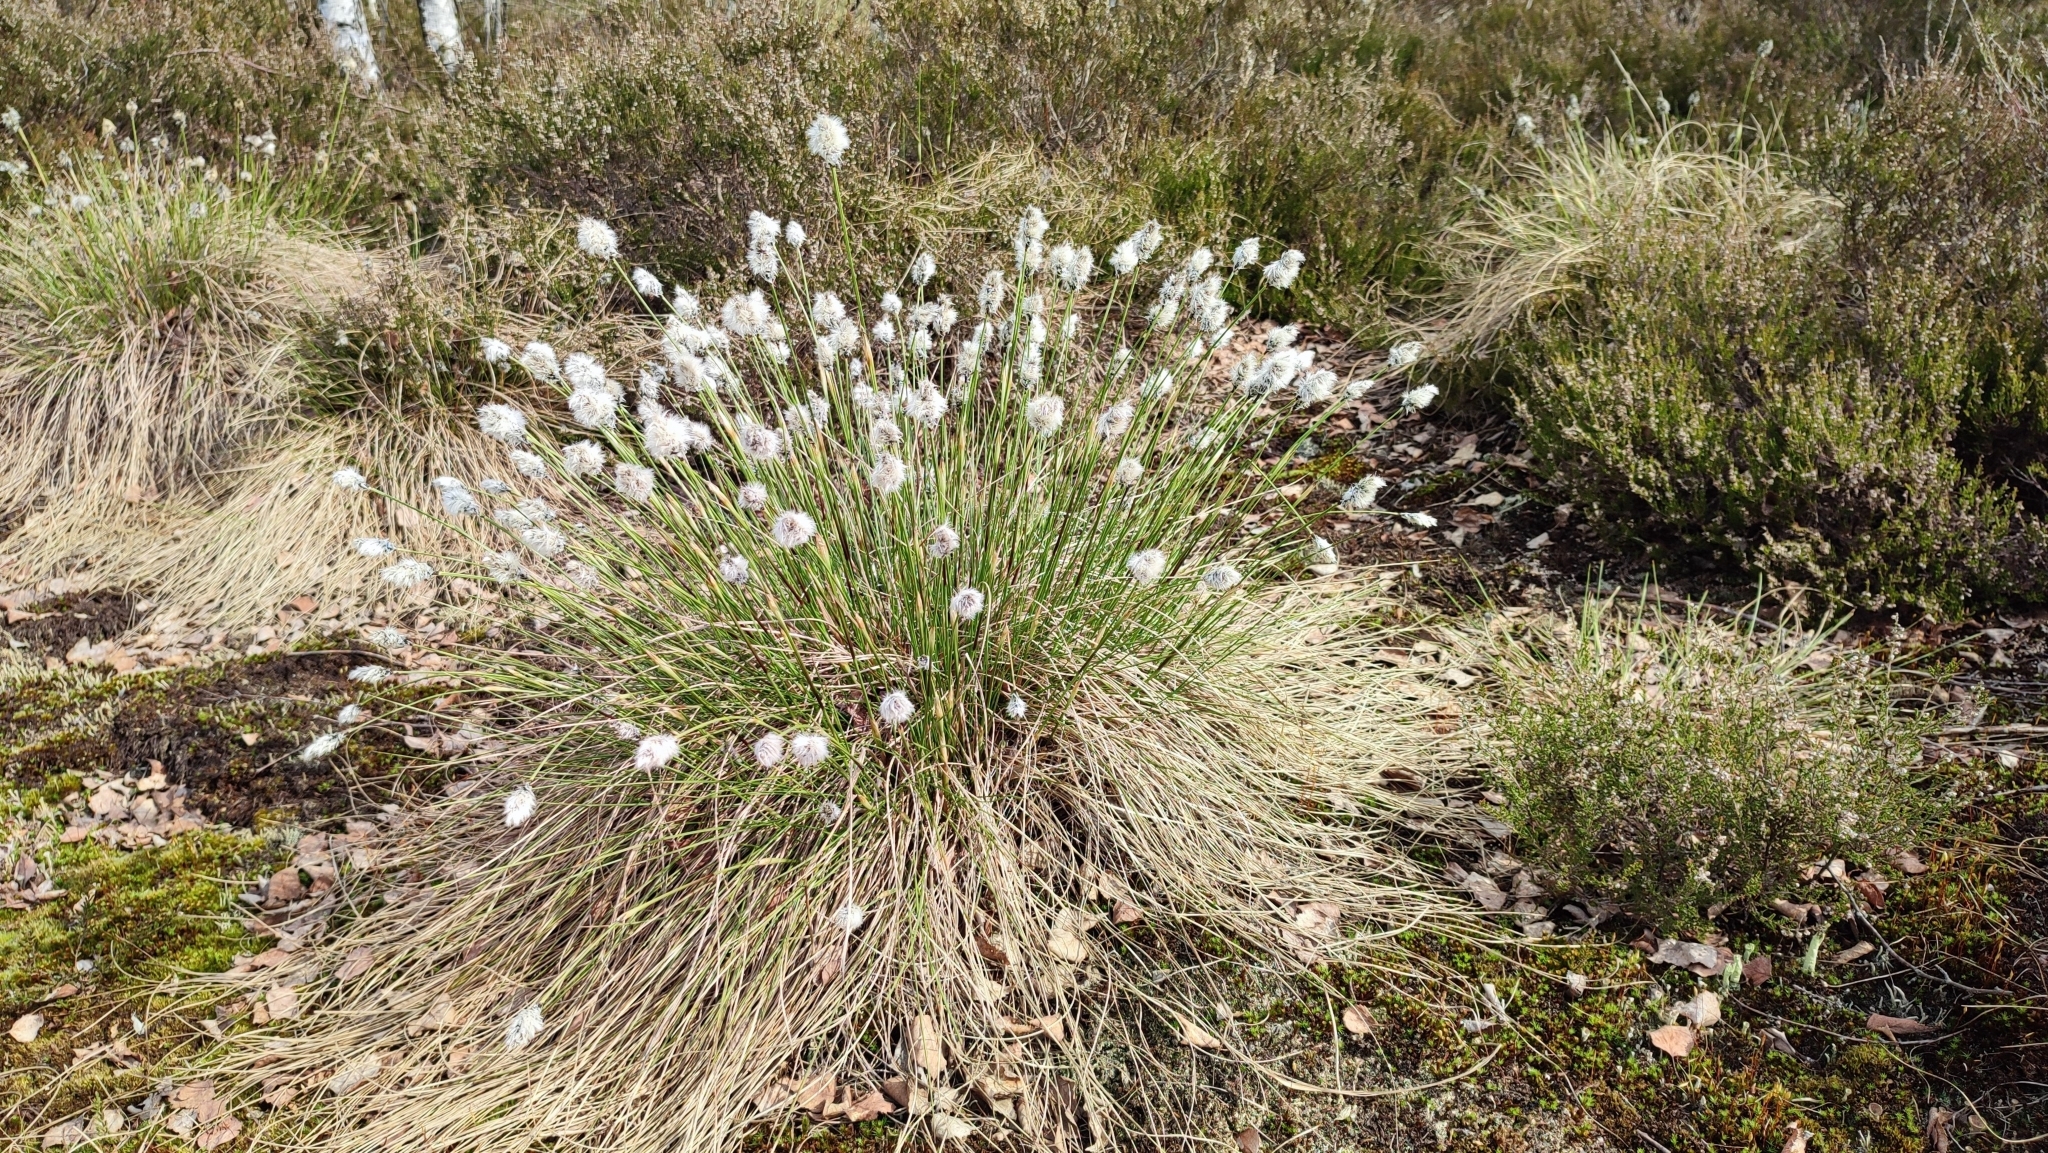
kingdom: Plantae
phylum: Tracheophyta
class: Liliopsida
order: Poales
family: Cyperaceae
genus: Eriophorum
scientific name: Eriophorum vaginatum
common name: Hare's-tail cottongrass
